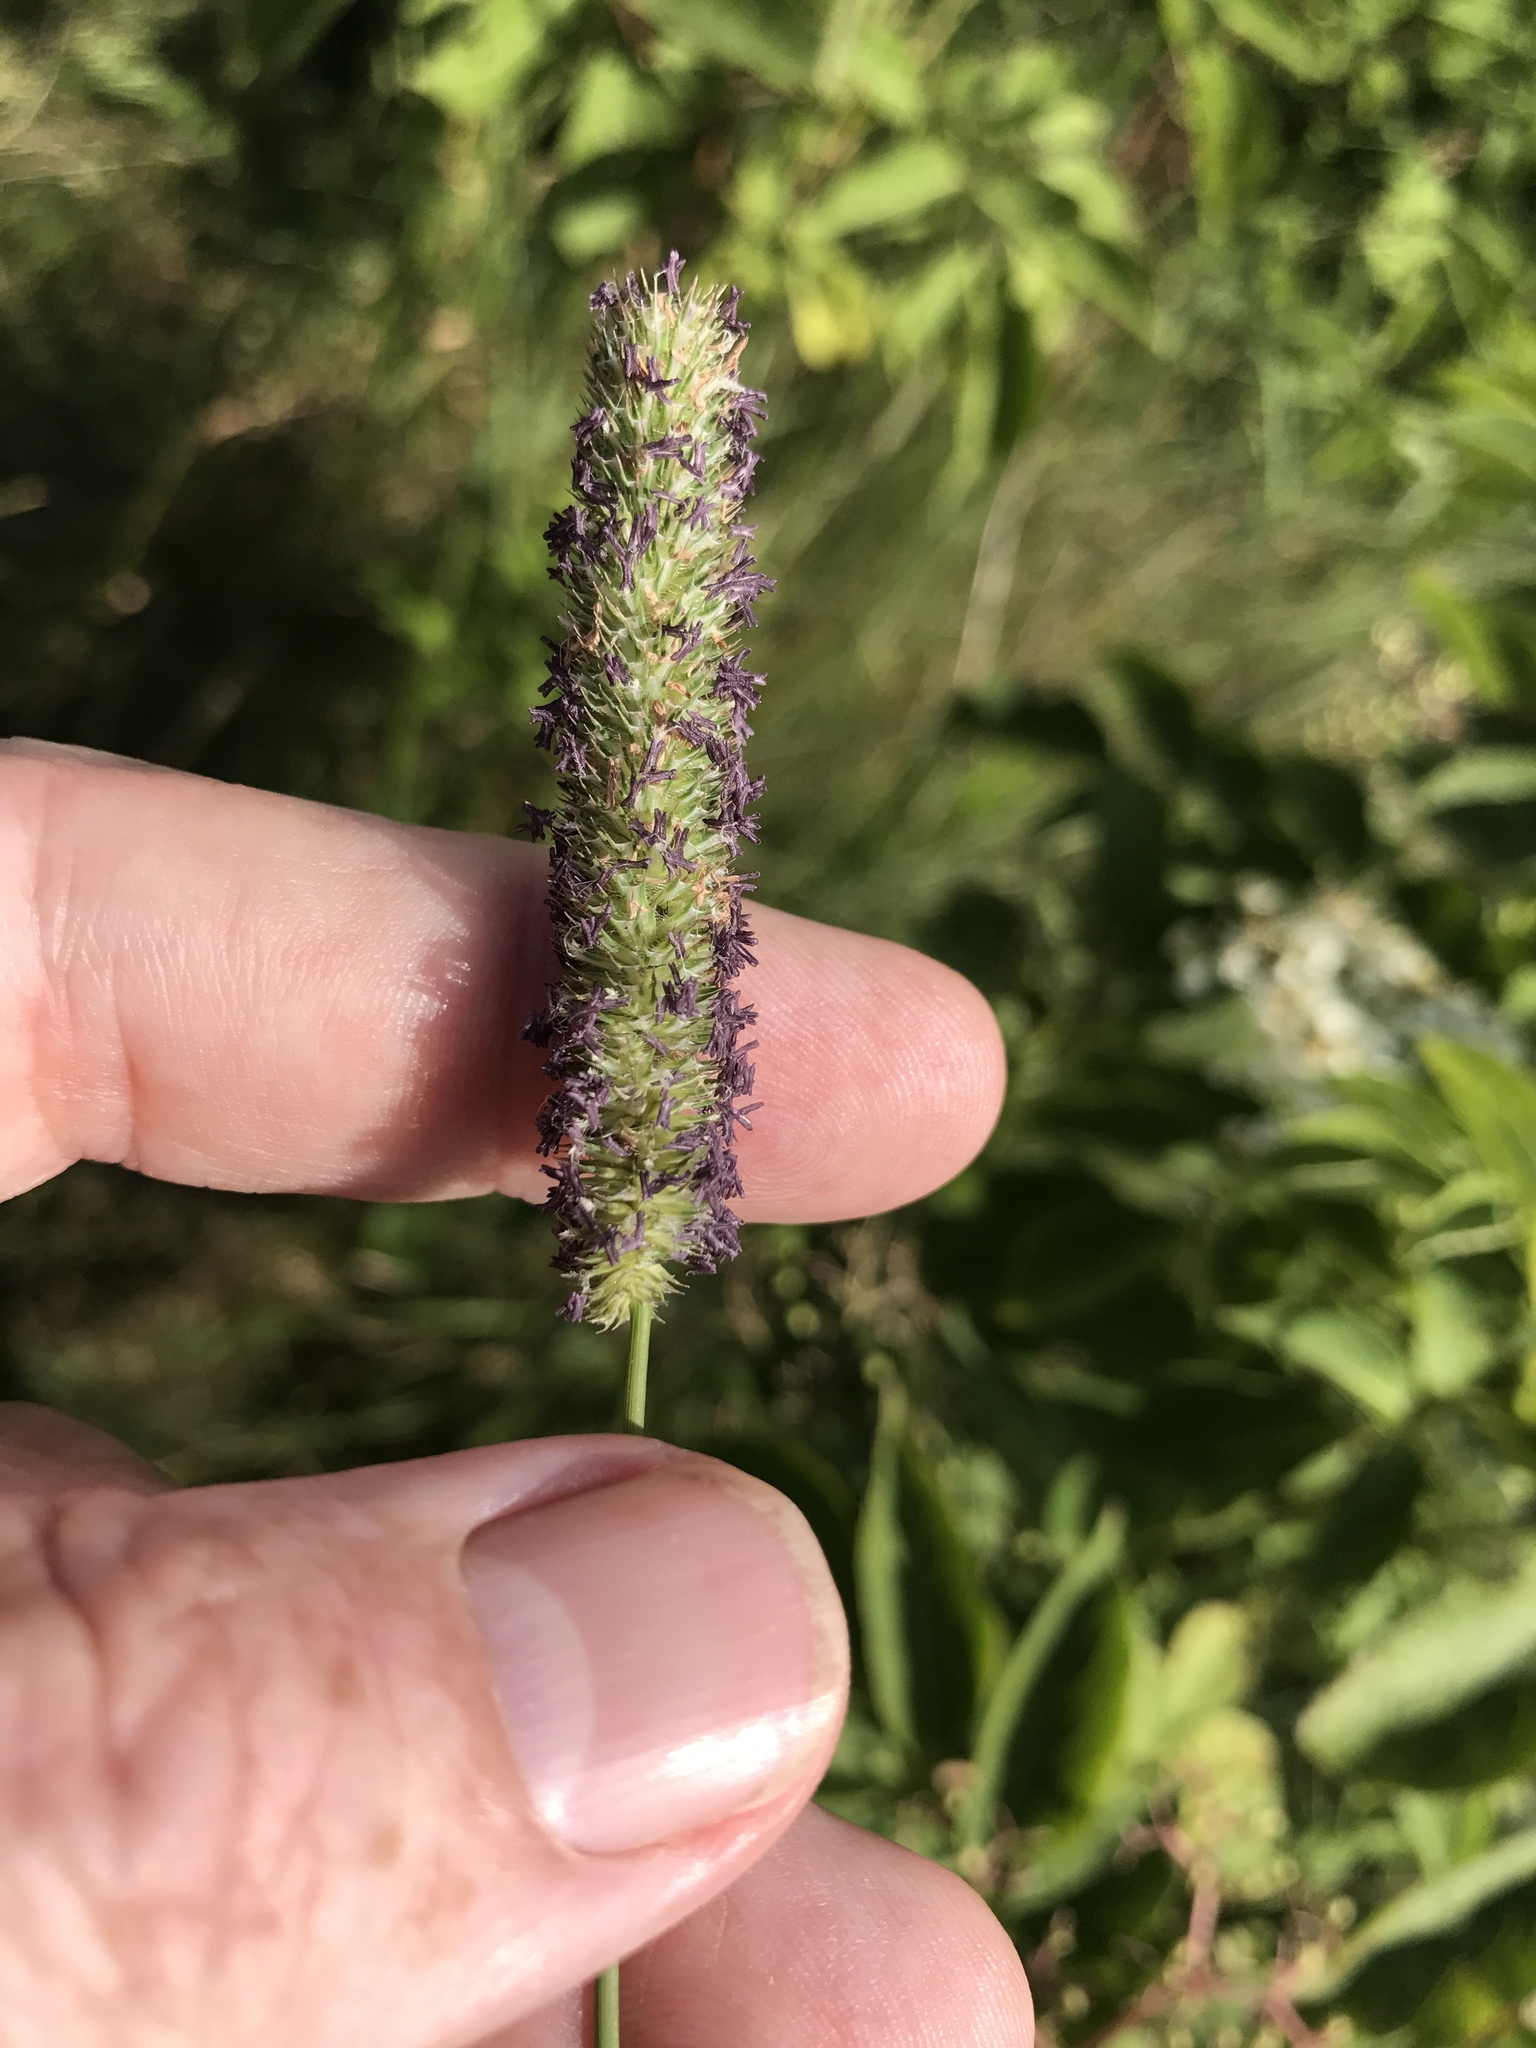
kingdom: Plantae
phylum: Tracheophyta
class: Liliopsida
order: Poales
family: Poaceae
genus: Phleum
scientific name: Phleum pratense
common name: Timothy grass
